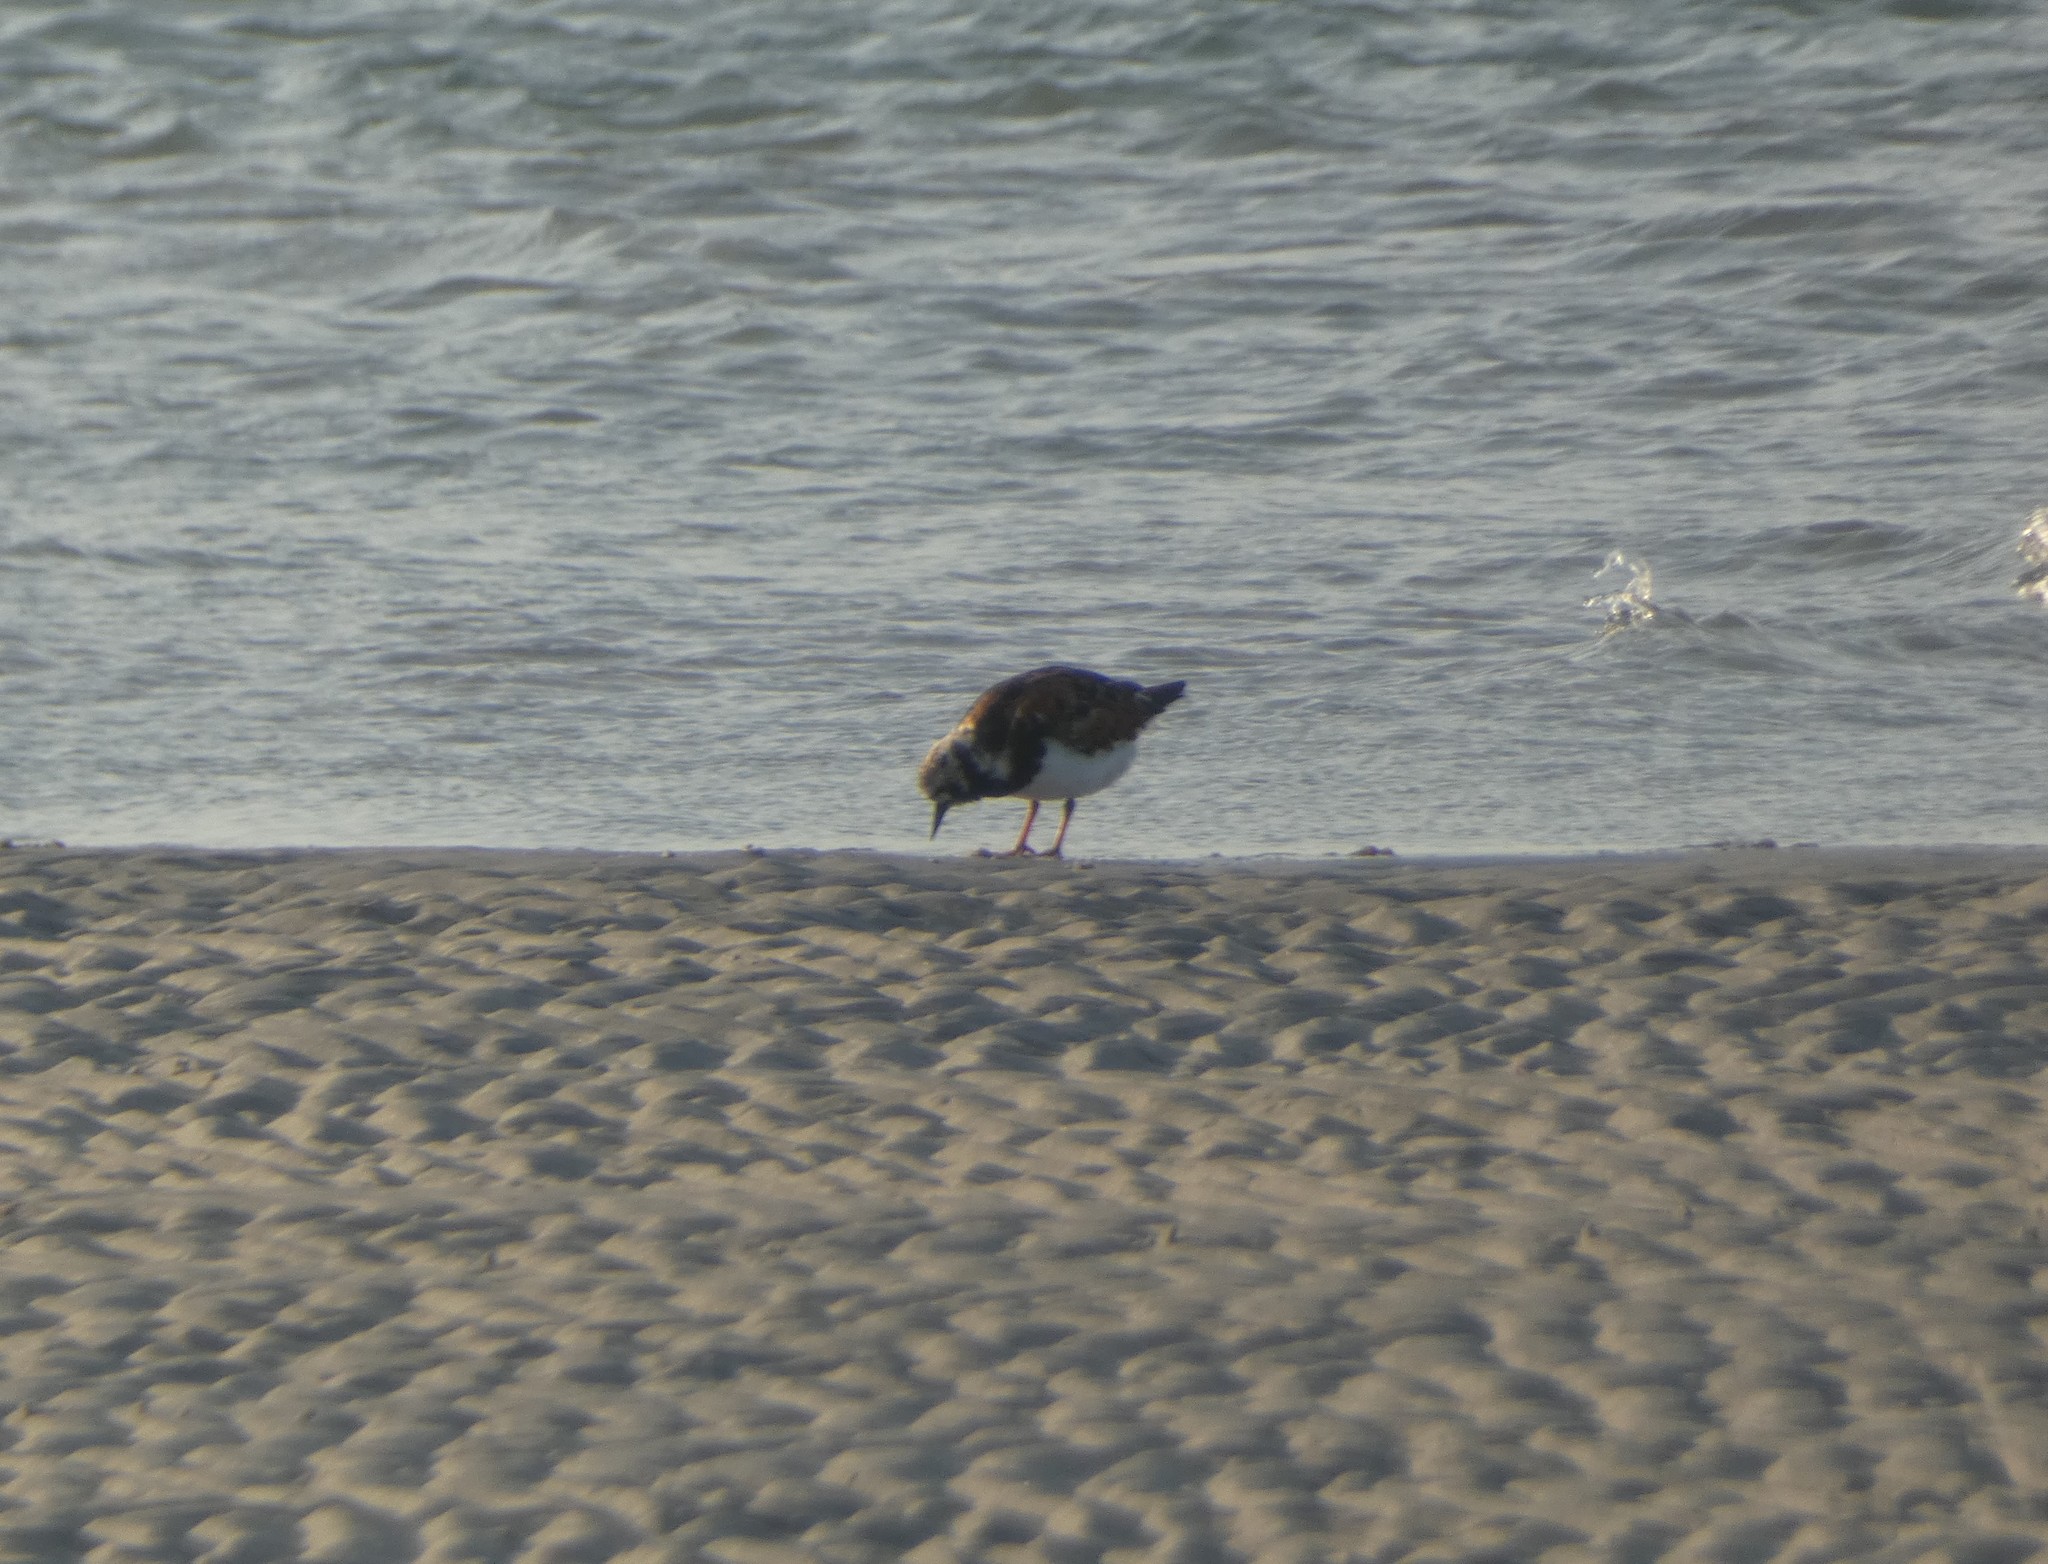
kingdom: Animalia
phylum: Chordata
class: Aves
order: Charadriiformes
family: Scolopacidae
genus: Arenaria
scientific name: Arenaria interpres
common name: Ruddy turnstone
